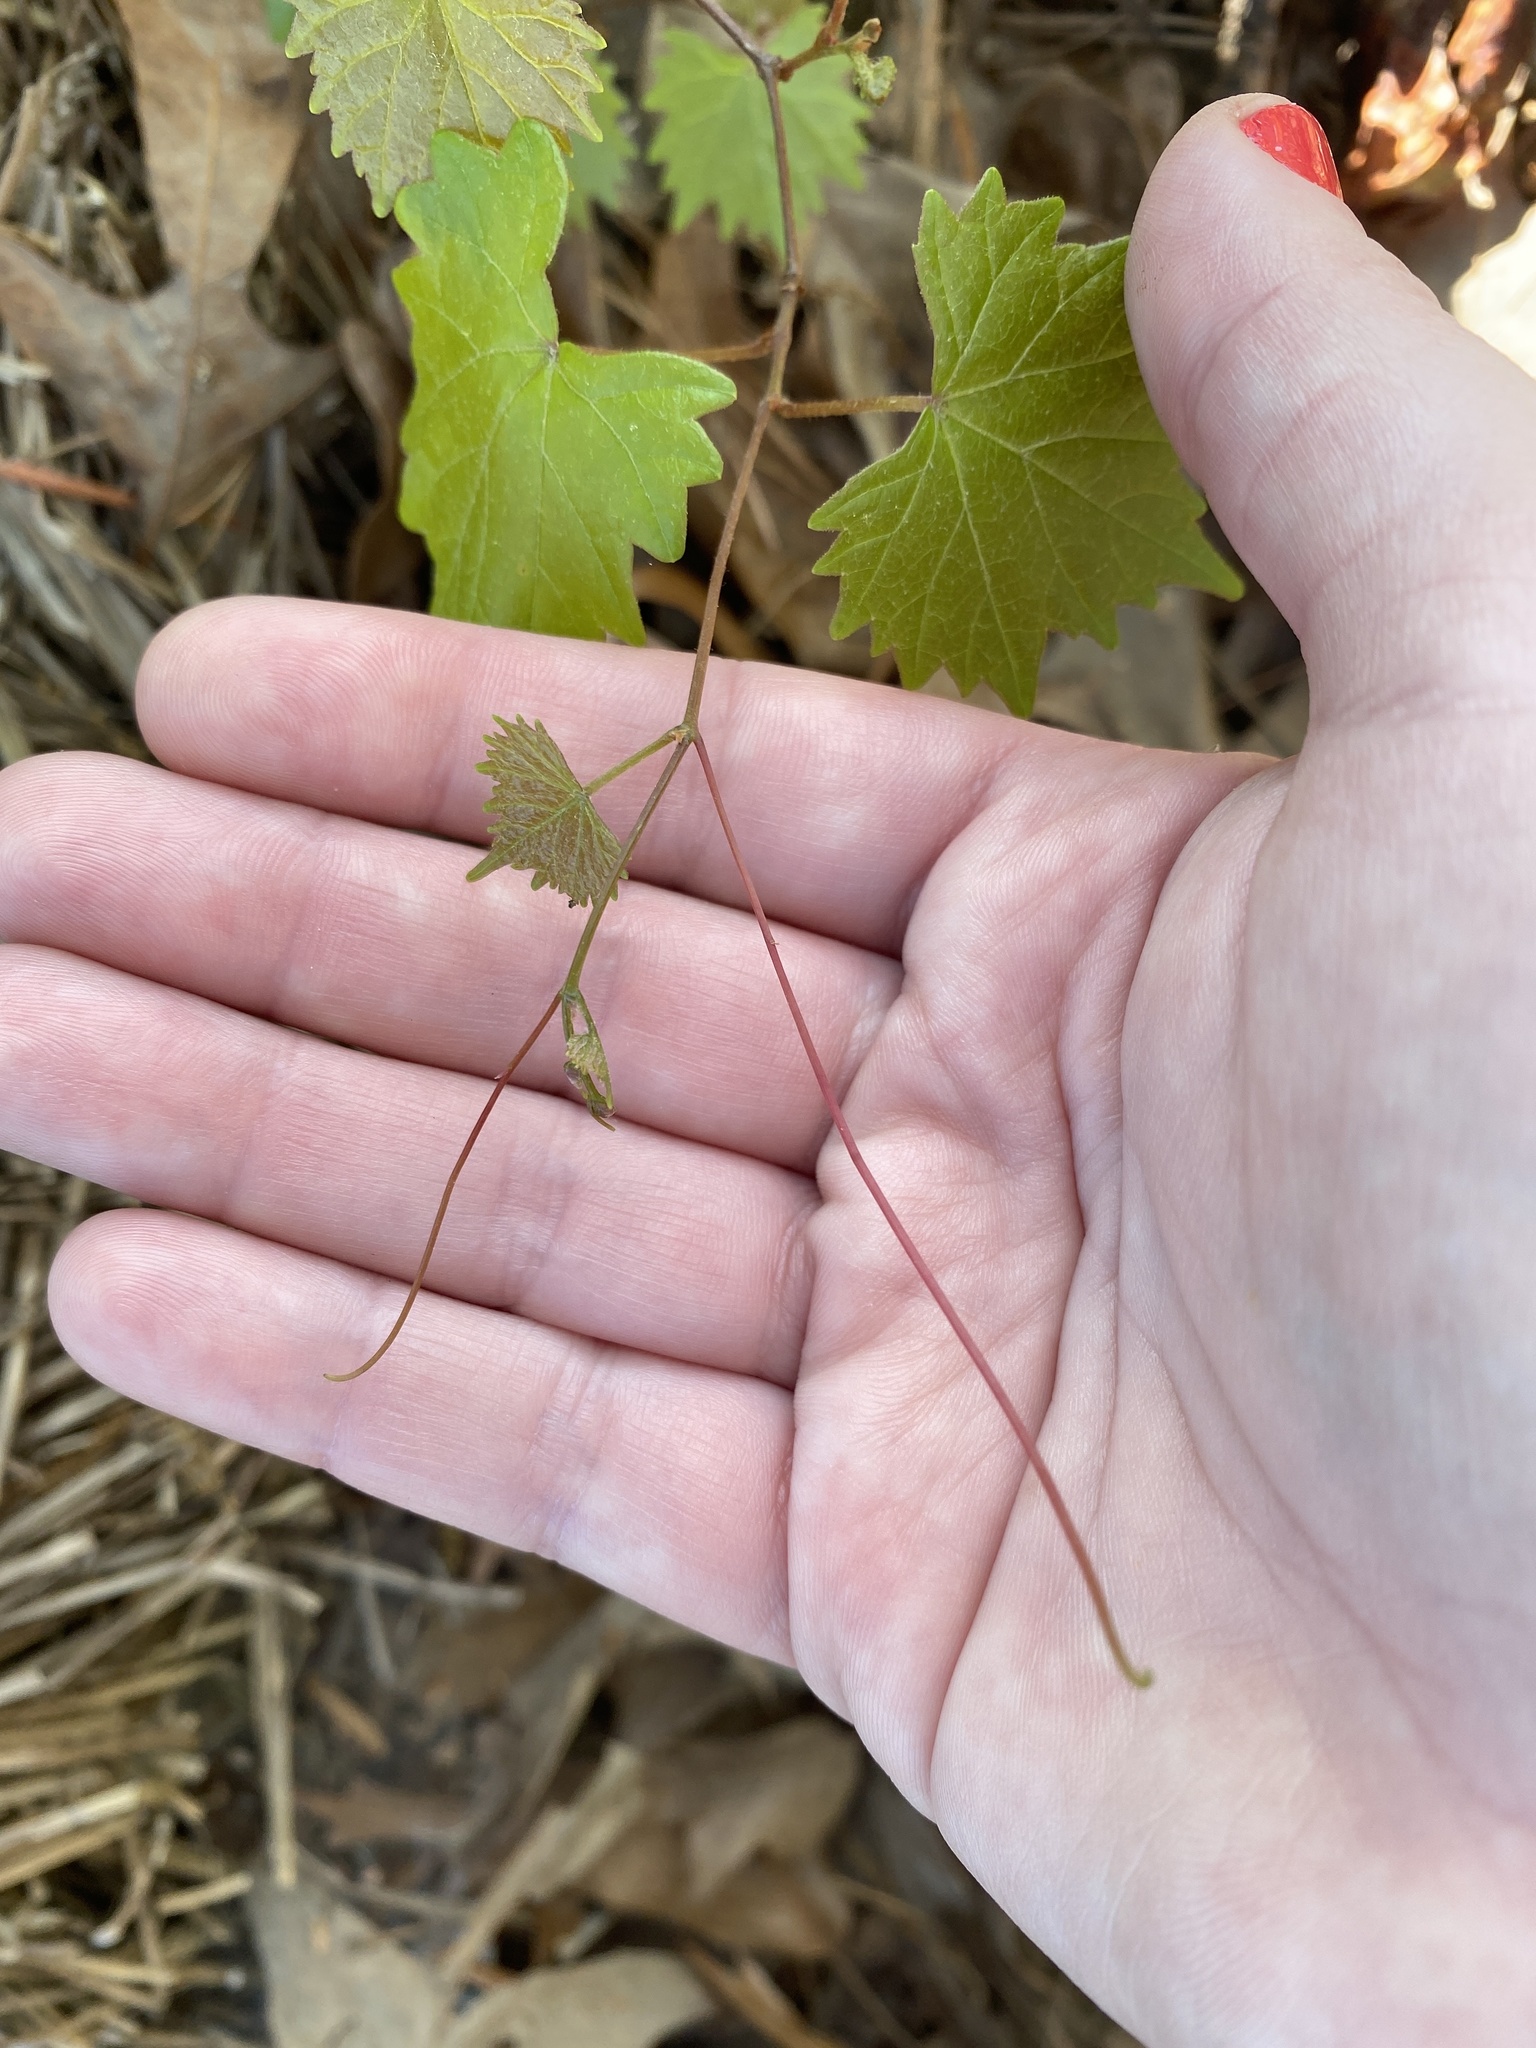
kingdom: Plantae
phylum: Tracheophyta
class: Magnoliopsida
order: Vitales
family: Vitaceae
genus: Vitis
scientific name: Vitis rotundifolia
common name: Muscadine grape
